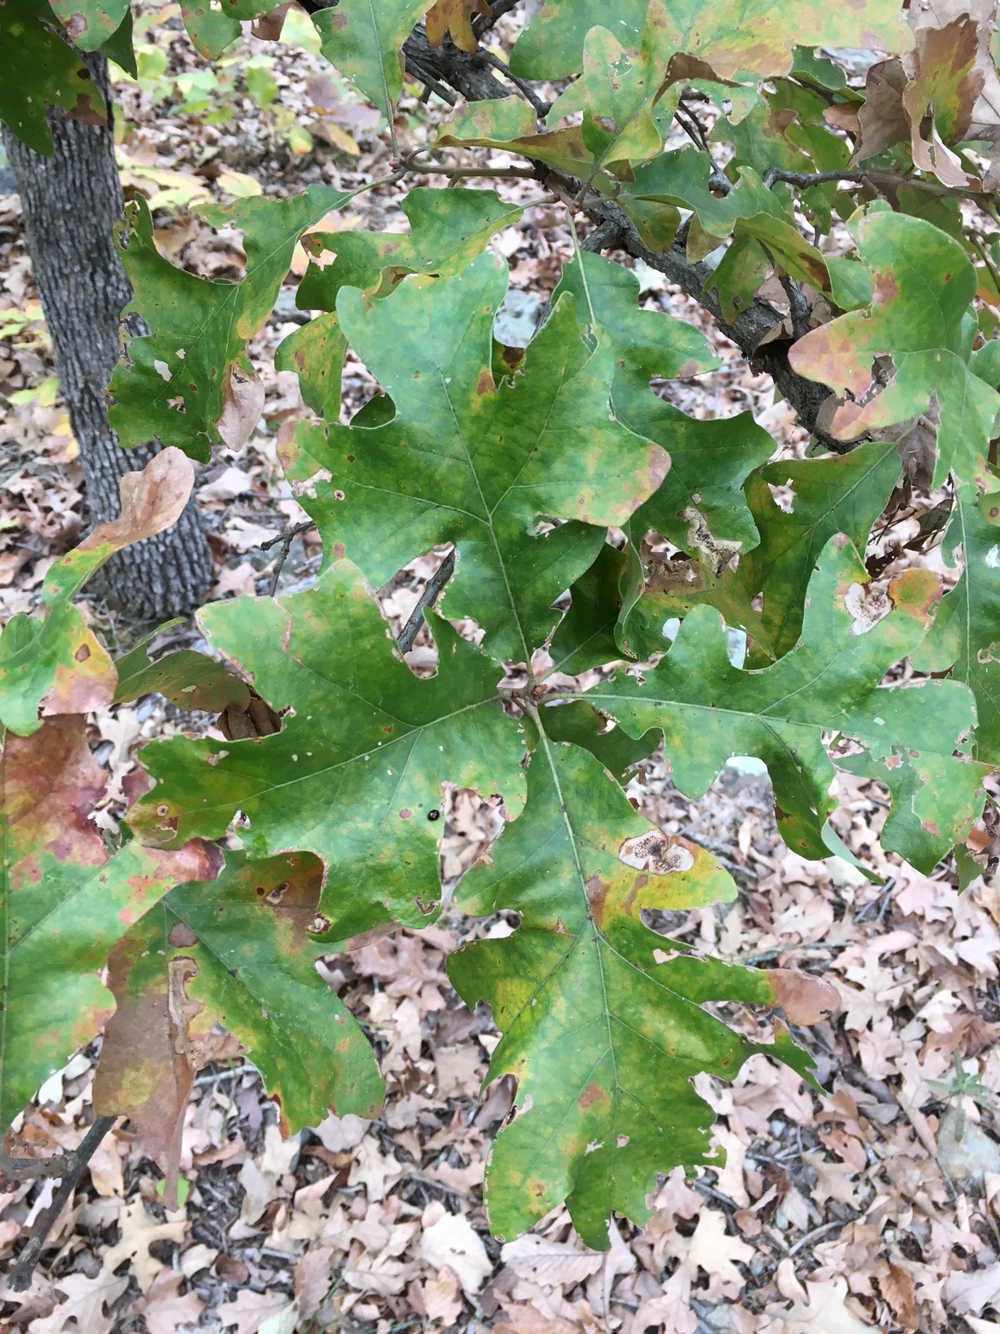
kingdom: Plantae
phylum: Tracheophyta
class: Magnoliopsida
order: Fagales
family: Fagaceae
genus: Quercus
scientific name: Quercus stellata
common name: Post oak
